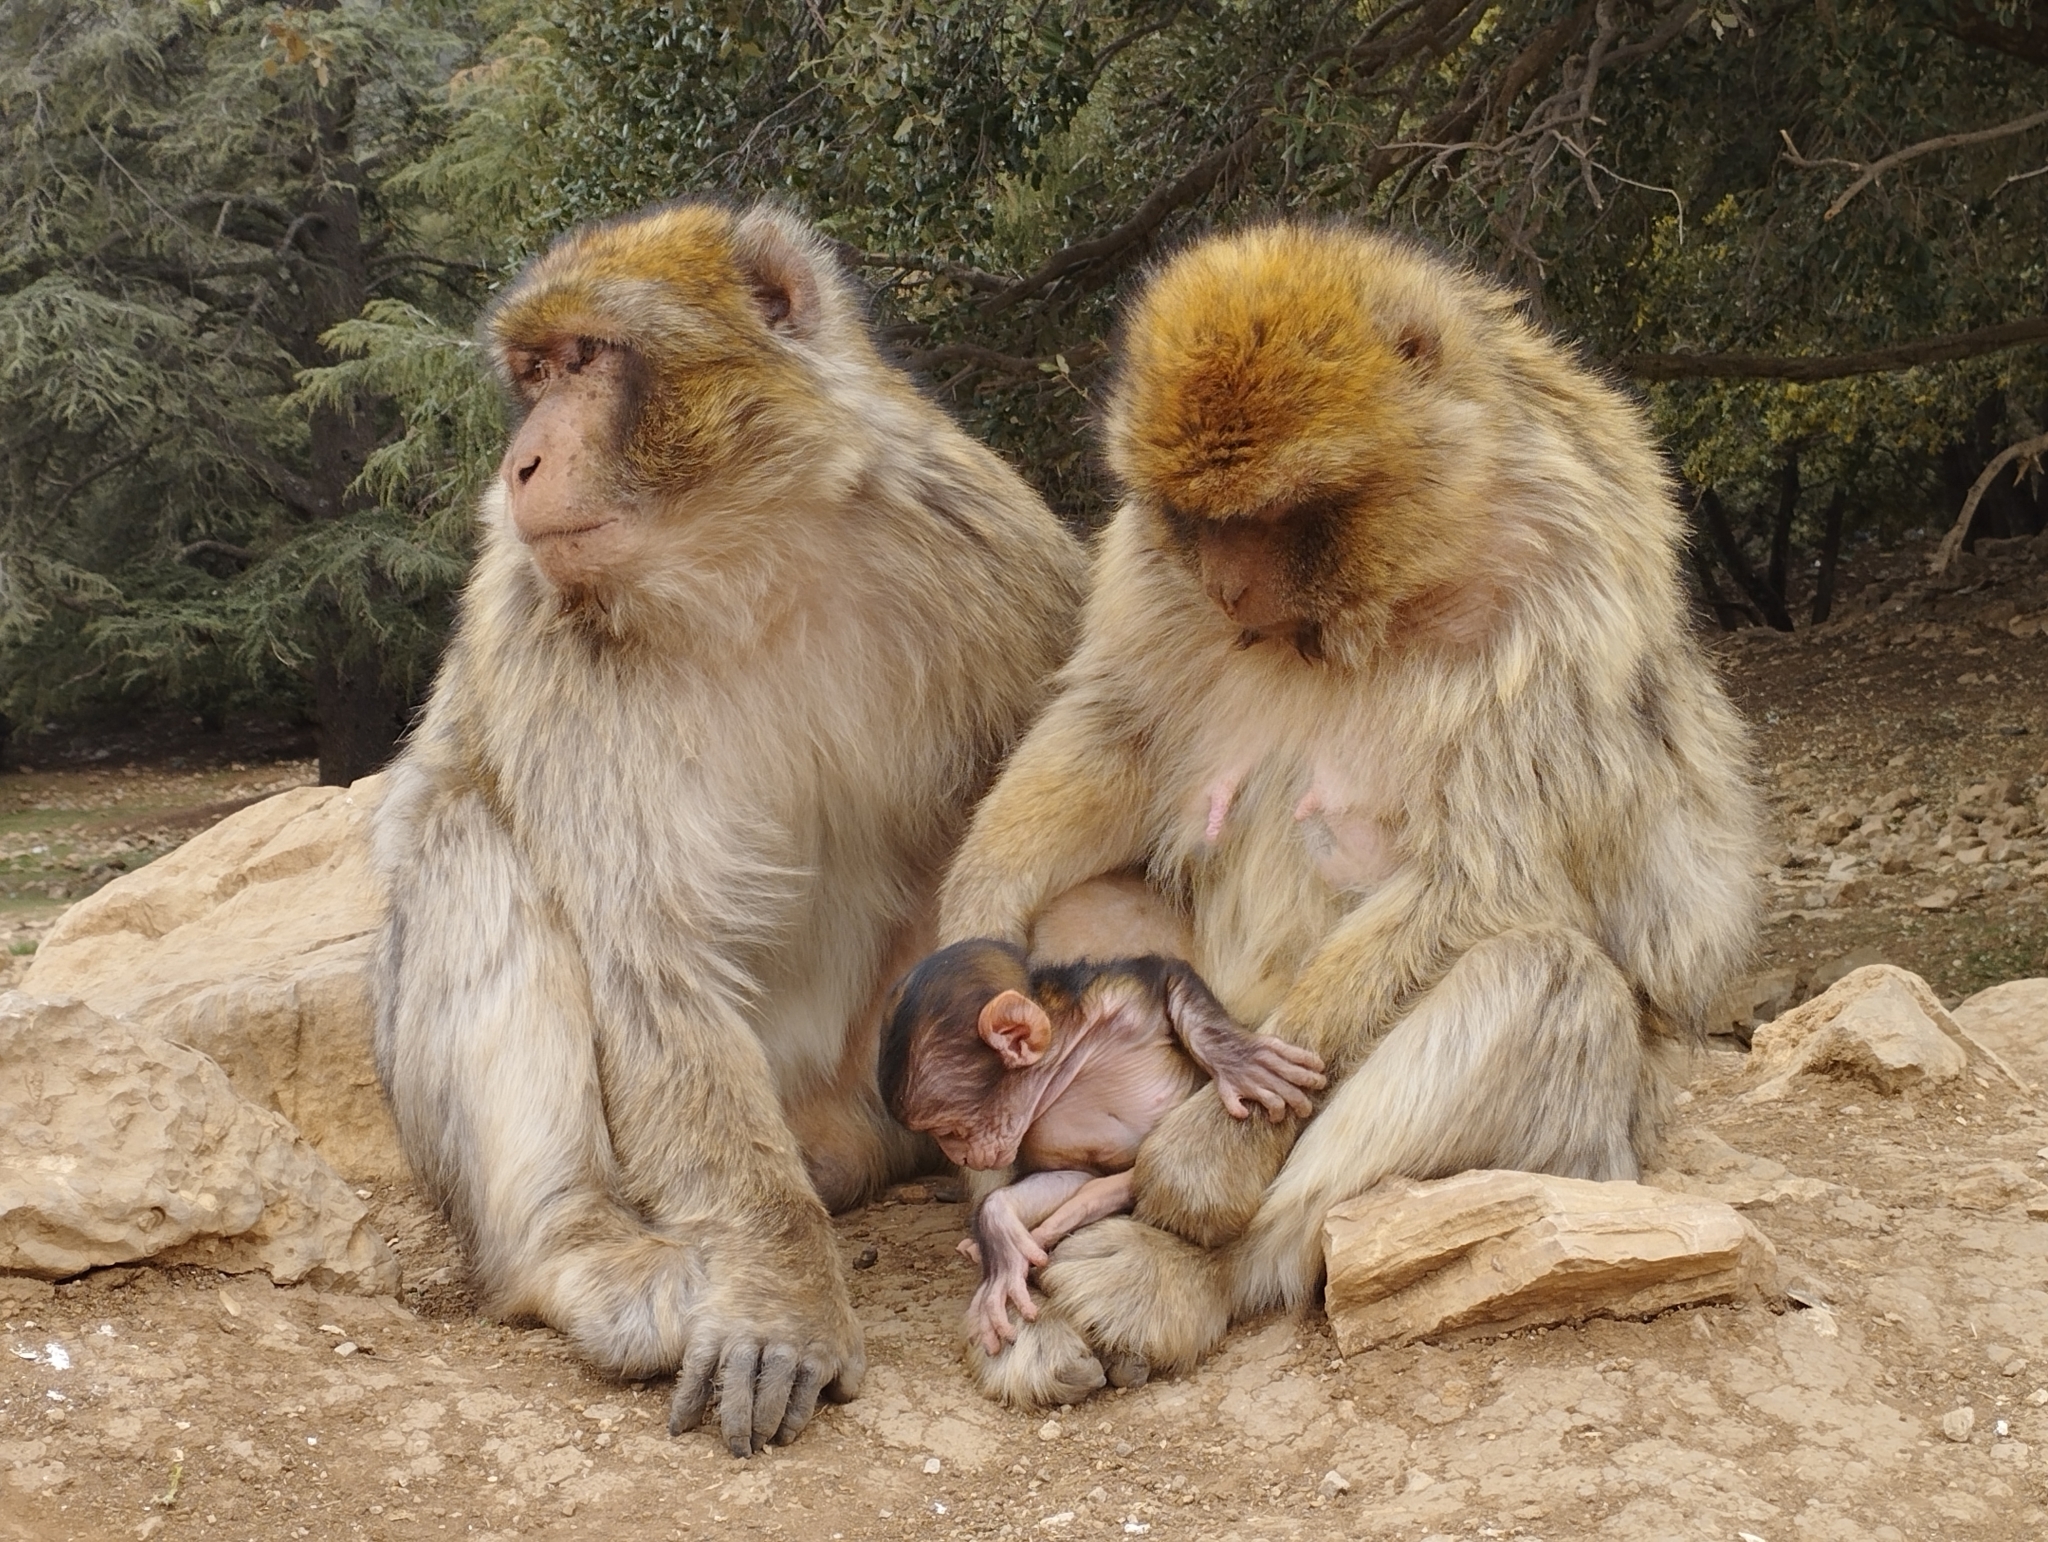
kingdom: Animalia
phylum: Chordata
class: Mammalia
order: Primates
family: Cercopithecidae
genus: Macaca
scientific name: Macaca sylvanus
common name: Barbary macaque
